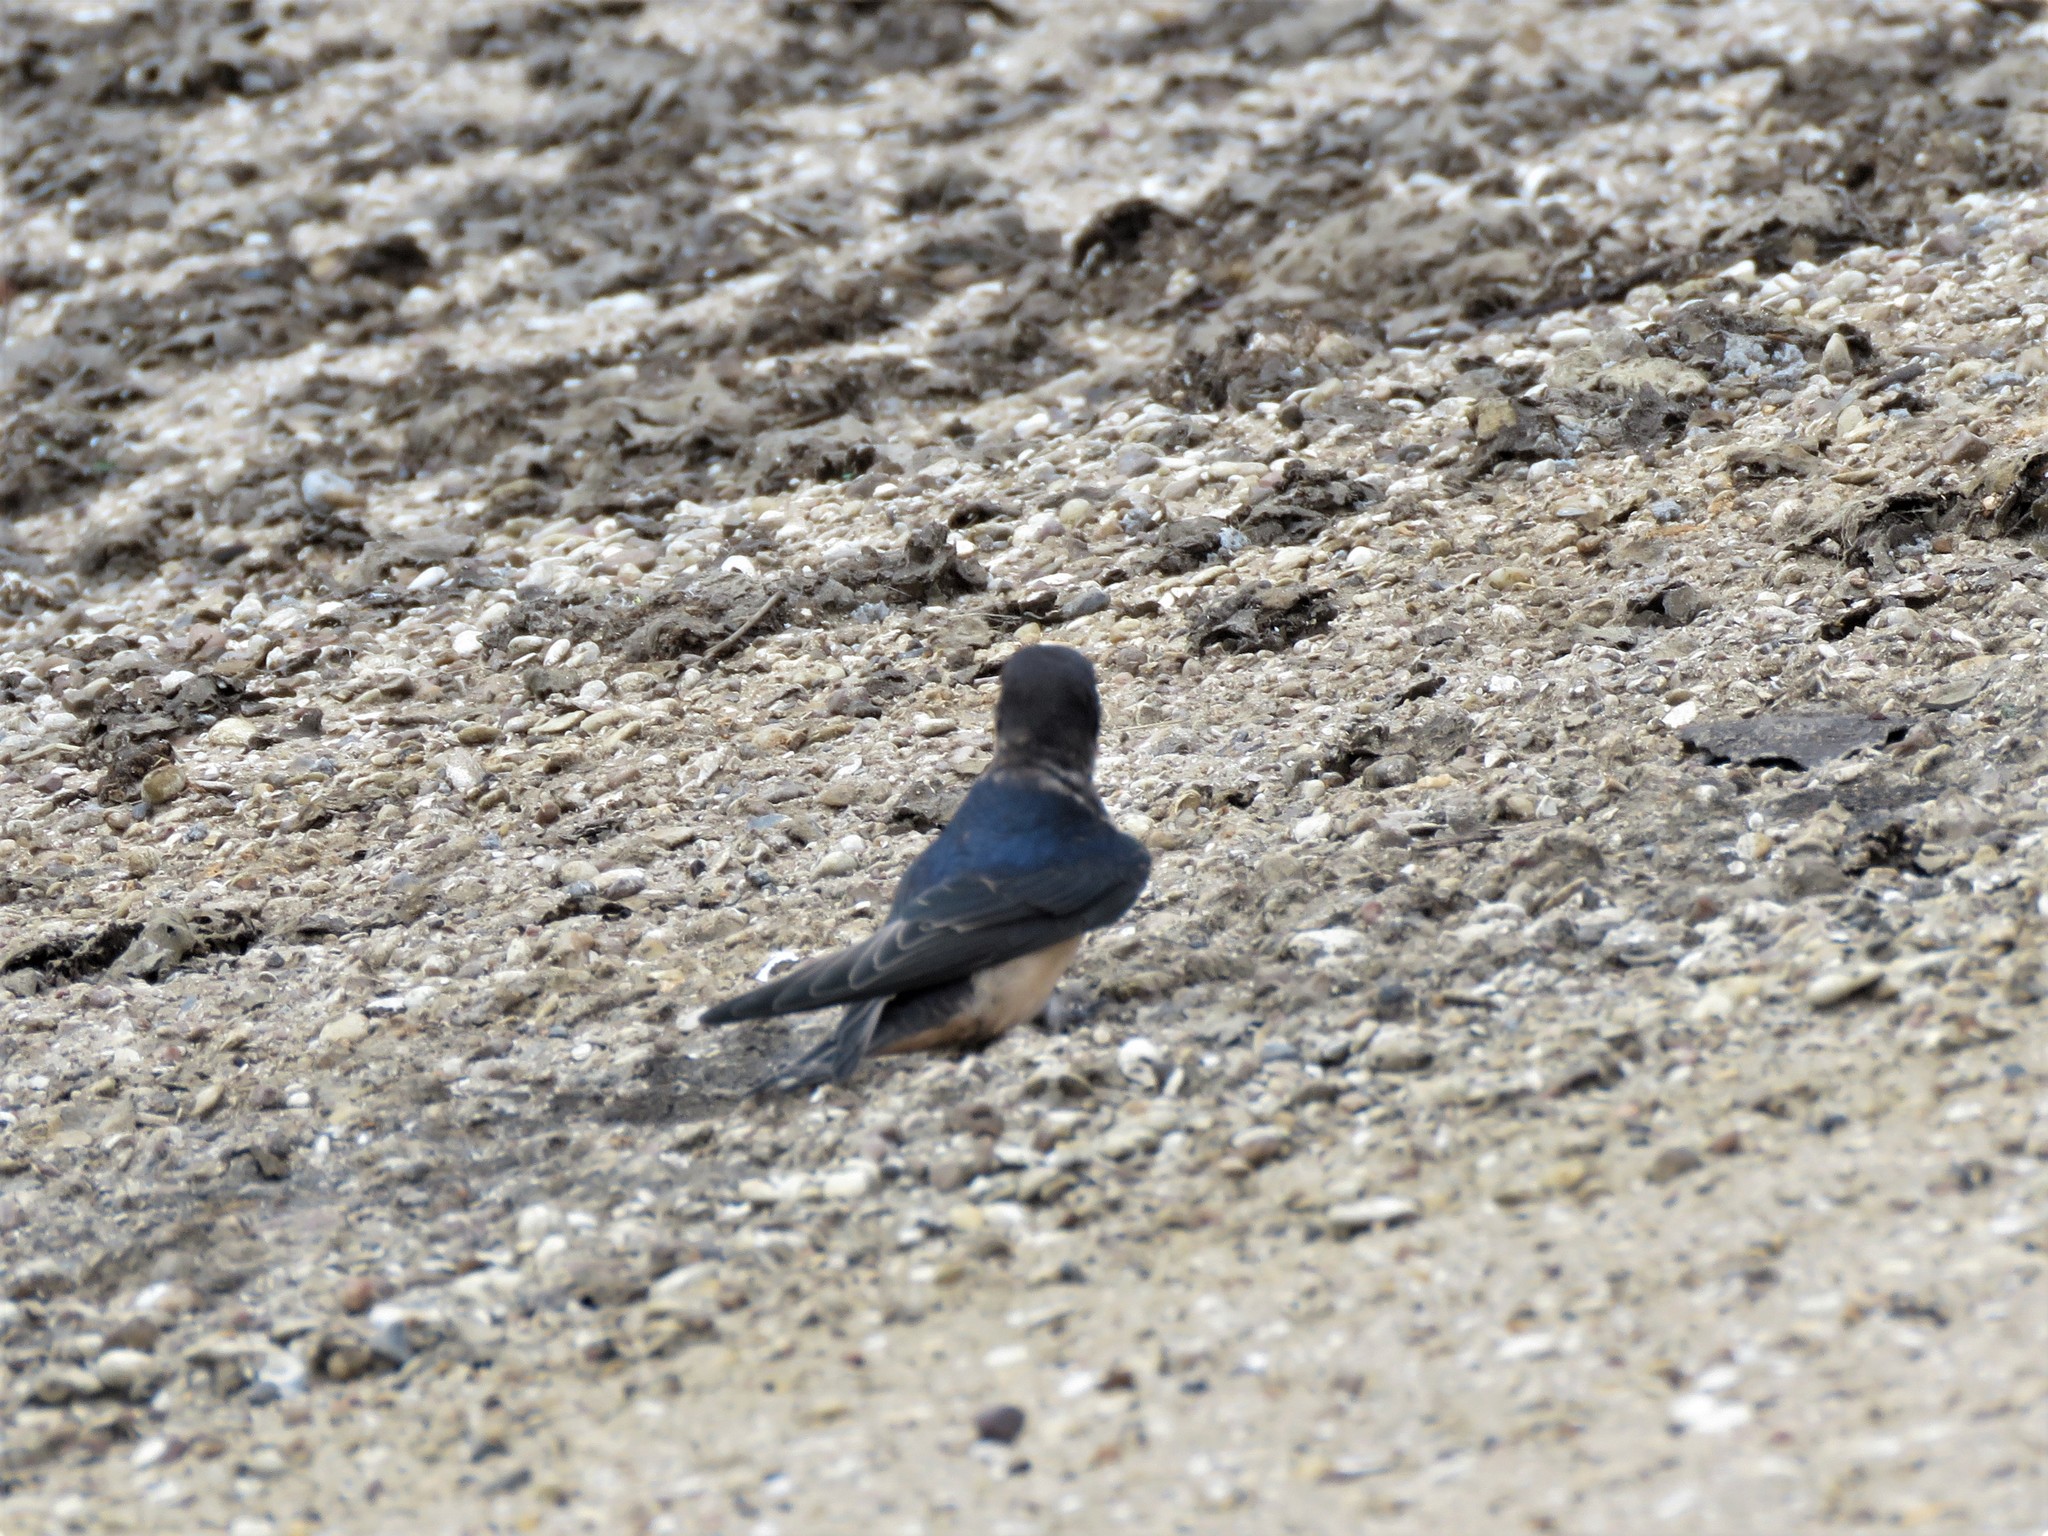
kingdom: Animalia
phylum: Chordata
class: Aves
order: Passeriformes
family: Hirundinidae
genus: Hirundo
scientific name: Hirundo rustica
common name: Barn swallow
